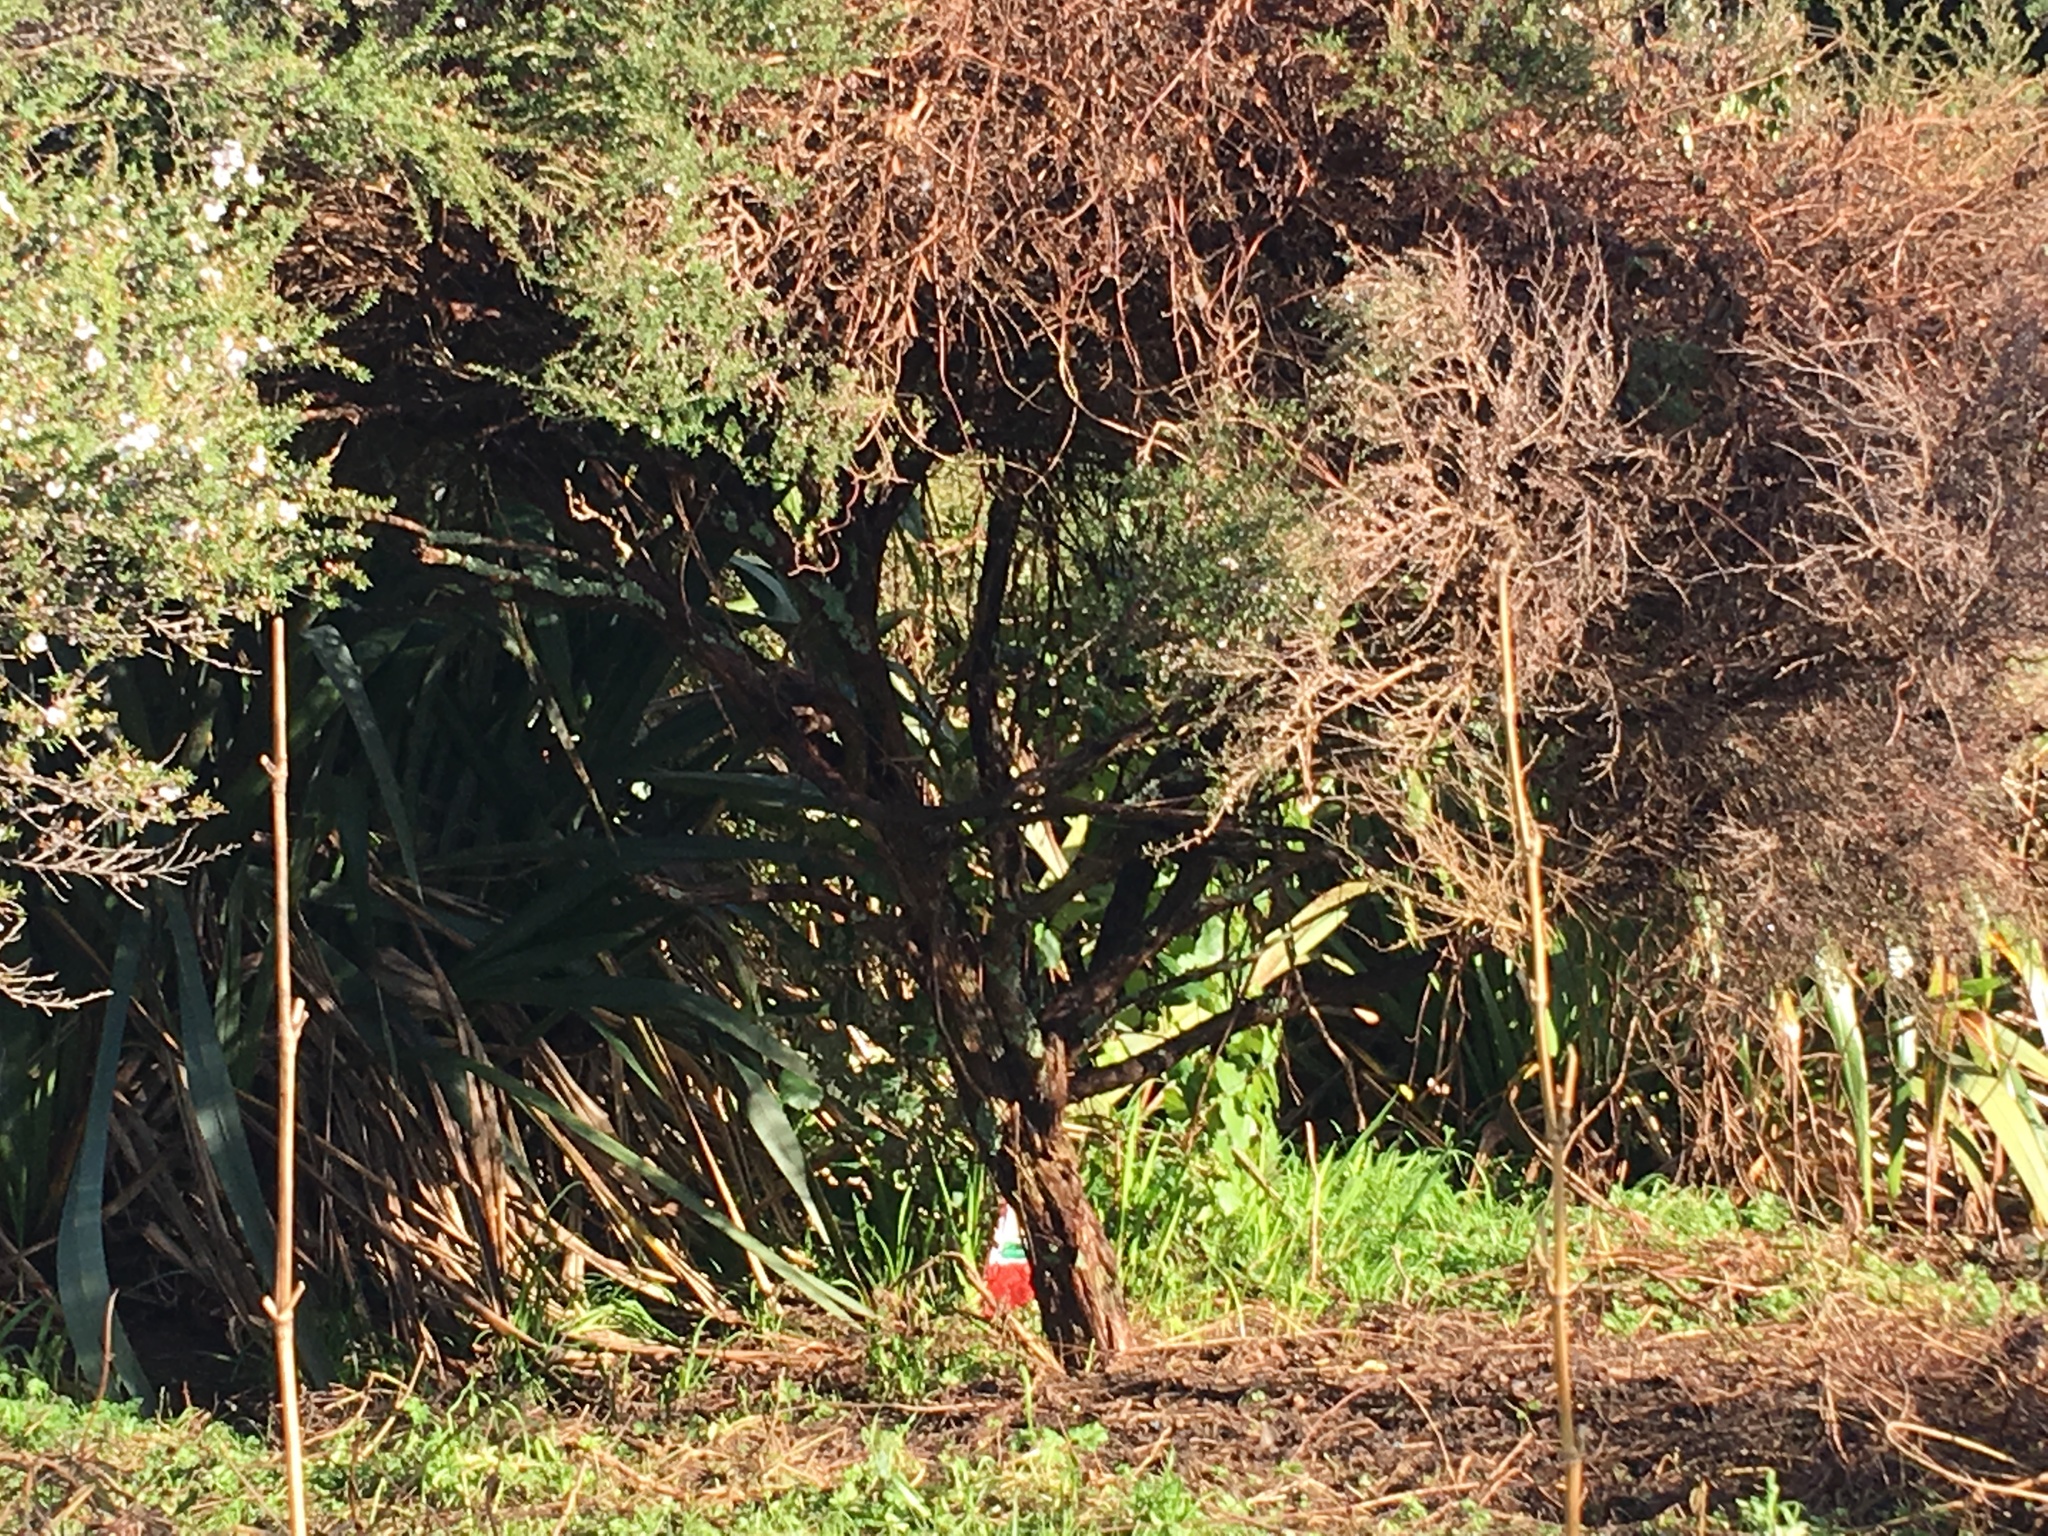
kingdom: Plantae
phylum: Tracheophyta
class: Magnoliopsida
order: Myrtales
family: Myrtaceae
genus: Leptospermum
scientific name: Leptospermum scoparium
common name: Broom tea-tree
